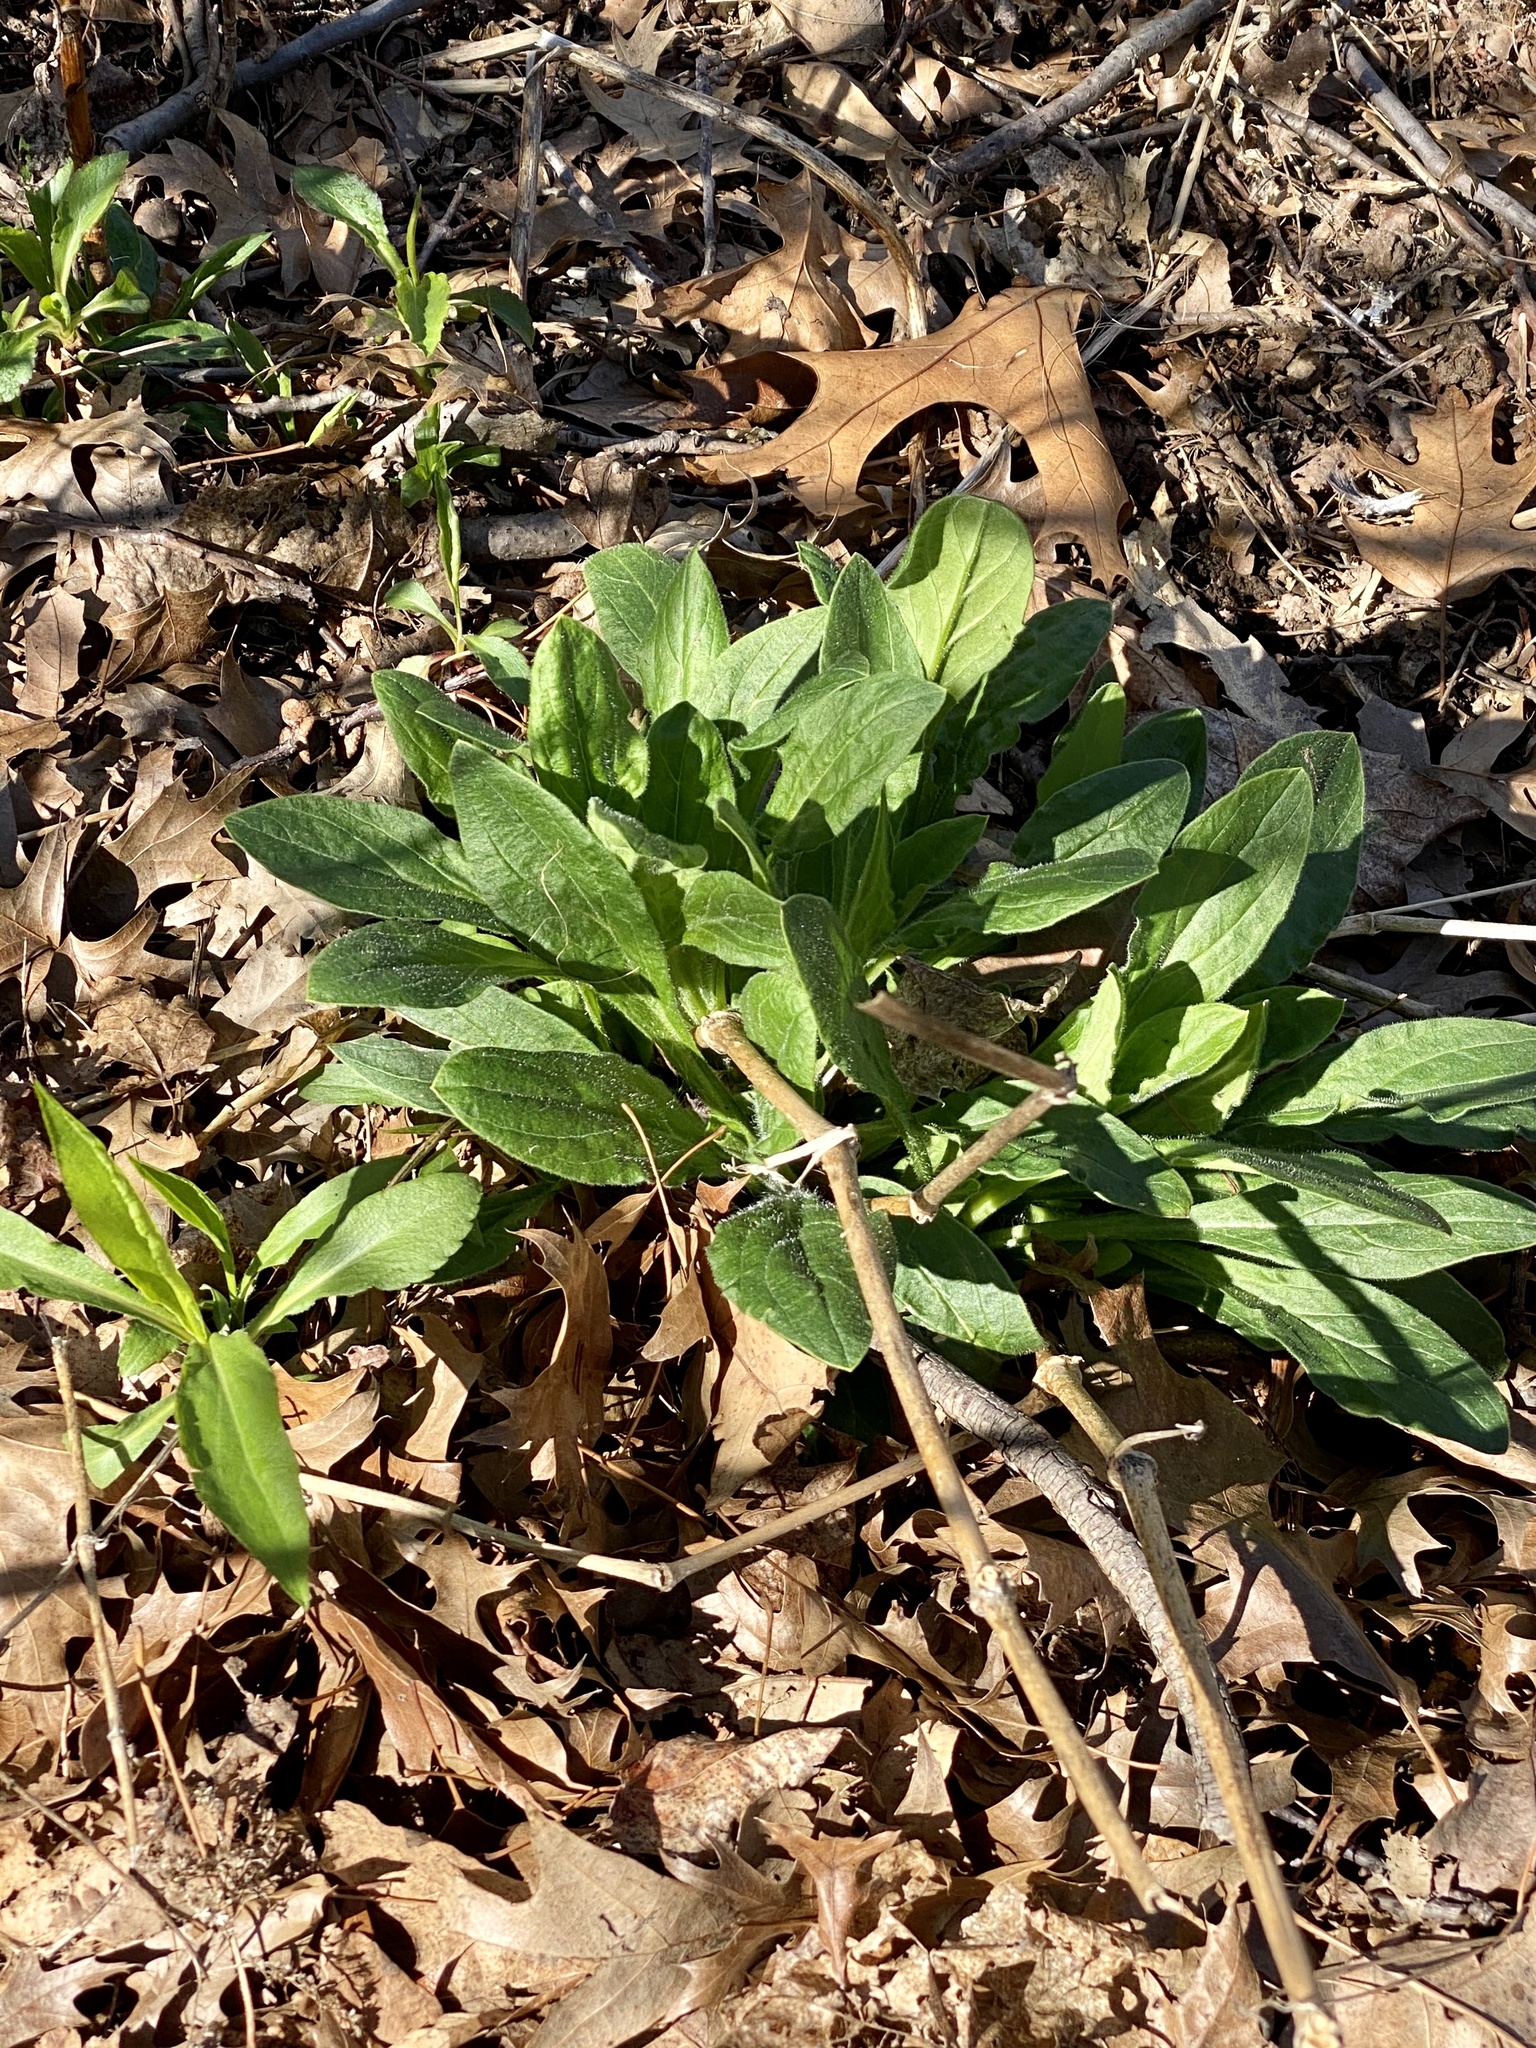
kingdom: Plantae
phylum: Tracheophyta
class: Magnoliopsida
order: Caryophyllales
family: Caryophyllaceae
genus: Silene
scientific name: Silene latifolia
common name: White campion
